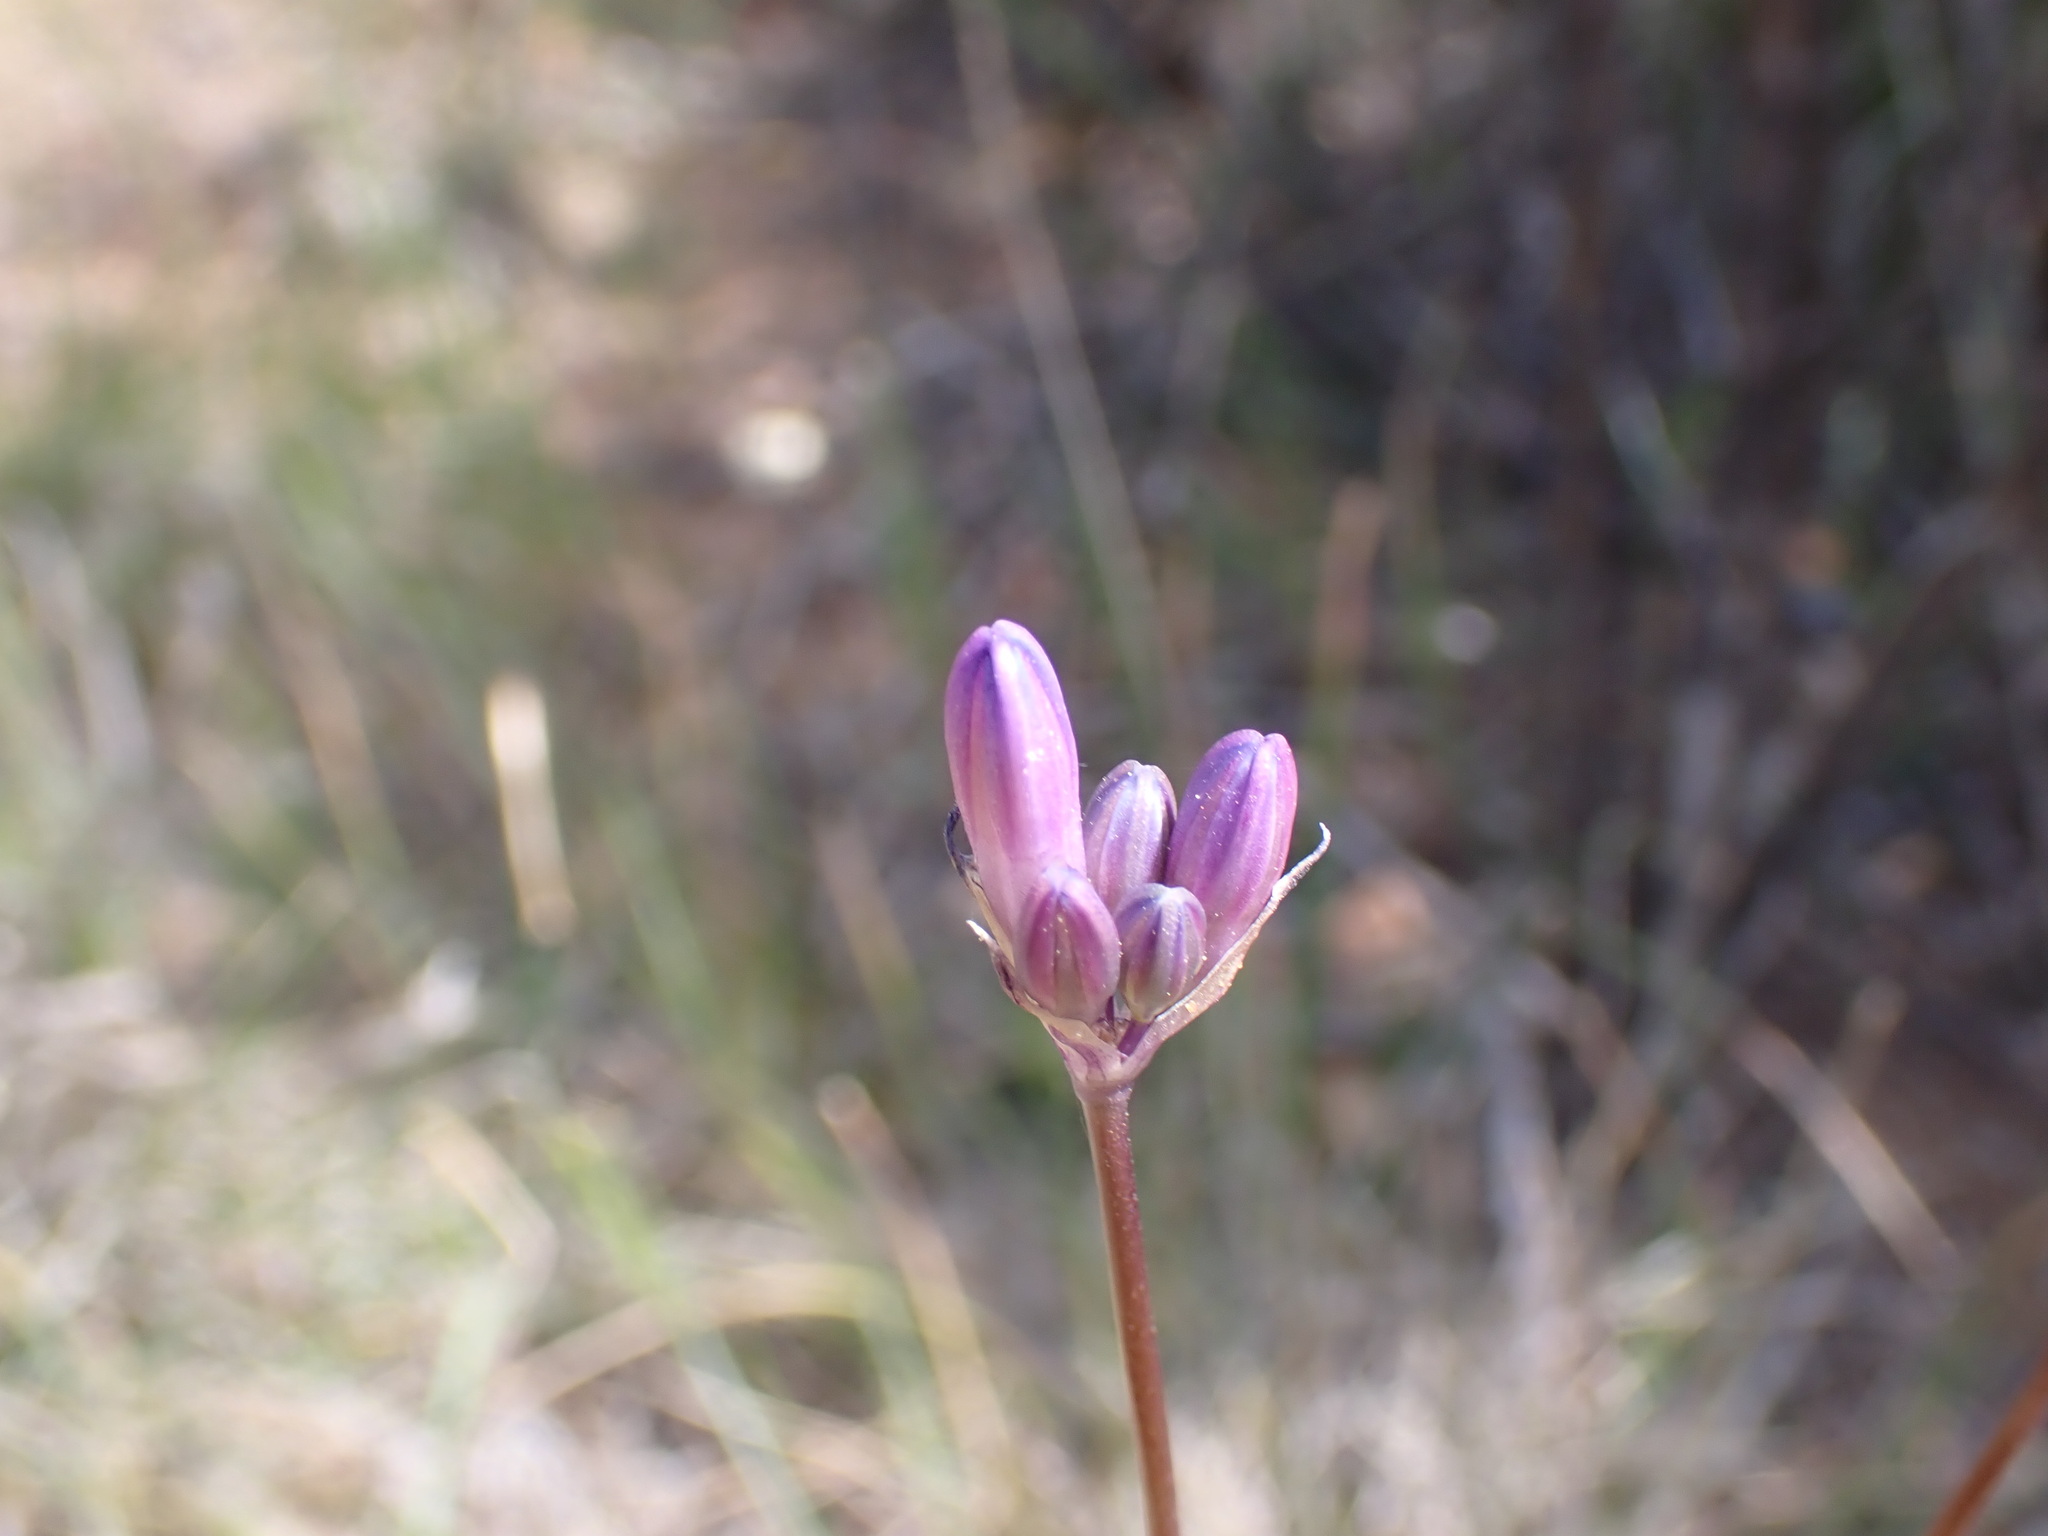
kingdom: Plantae
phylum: Tracheophyta
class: Liliopsida
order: Asparagales
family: Asparagaceae
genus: Dipterostemon
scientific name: Dipterostemon capitatus
